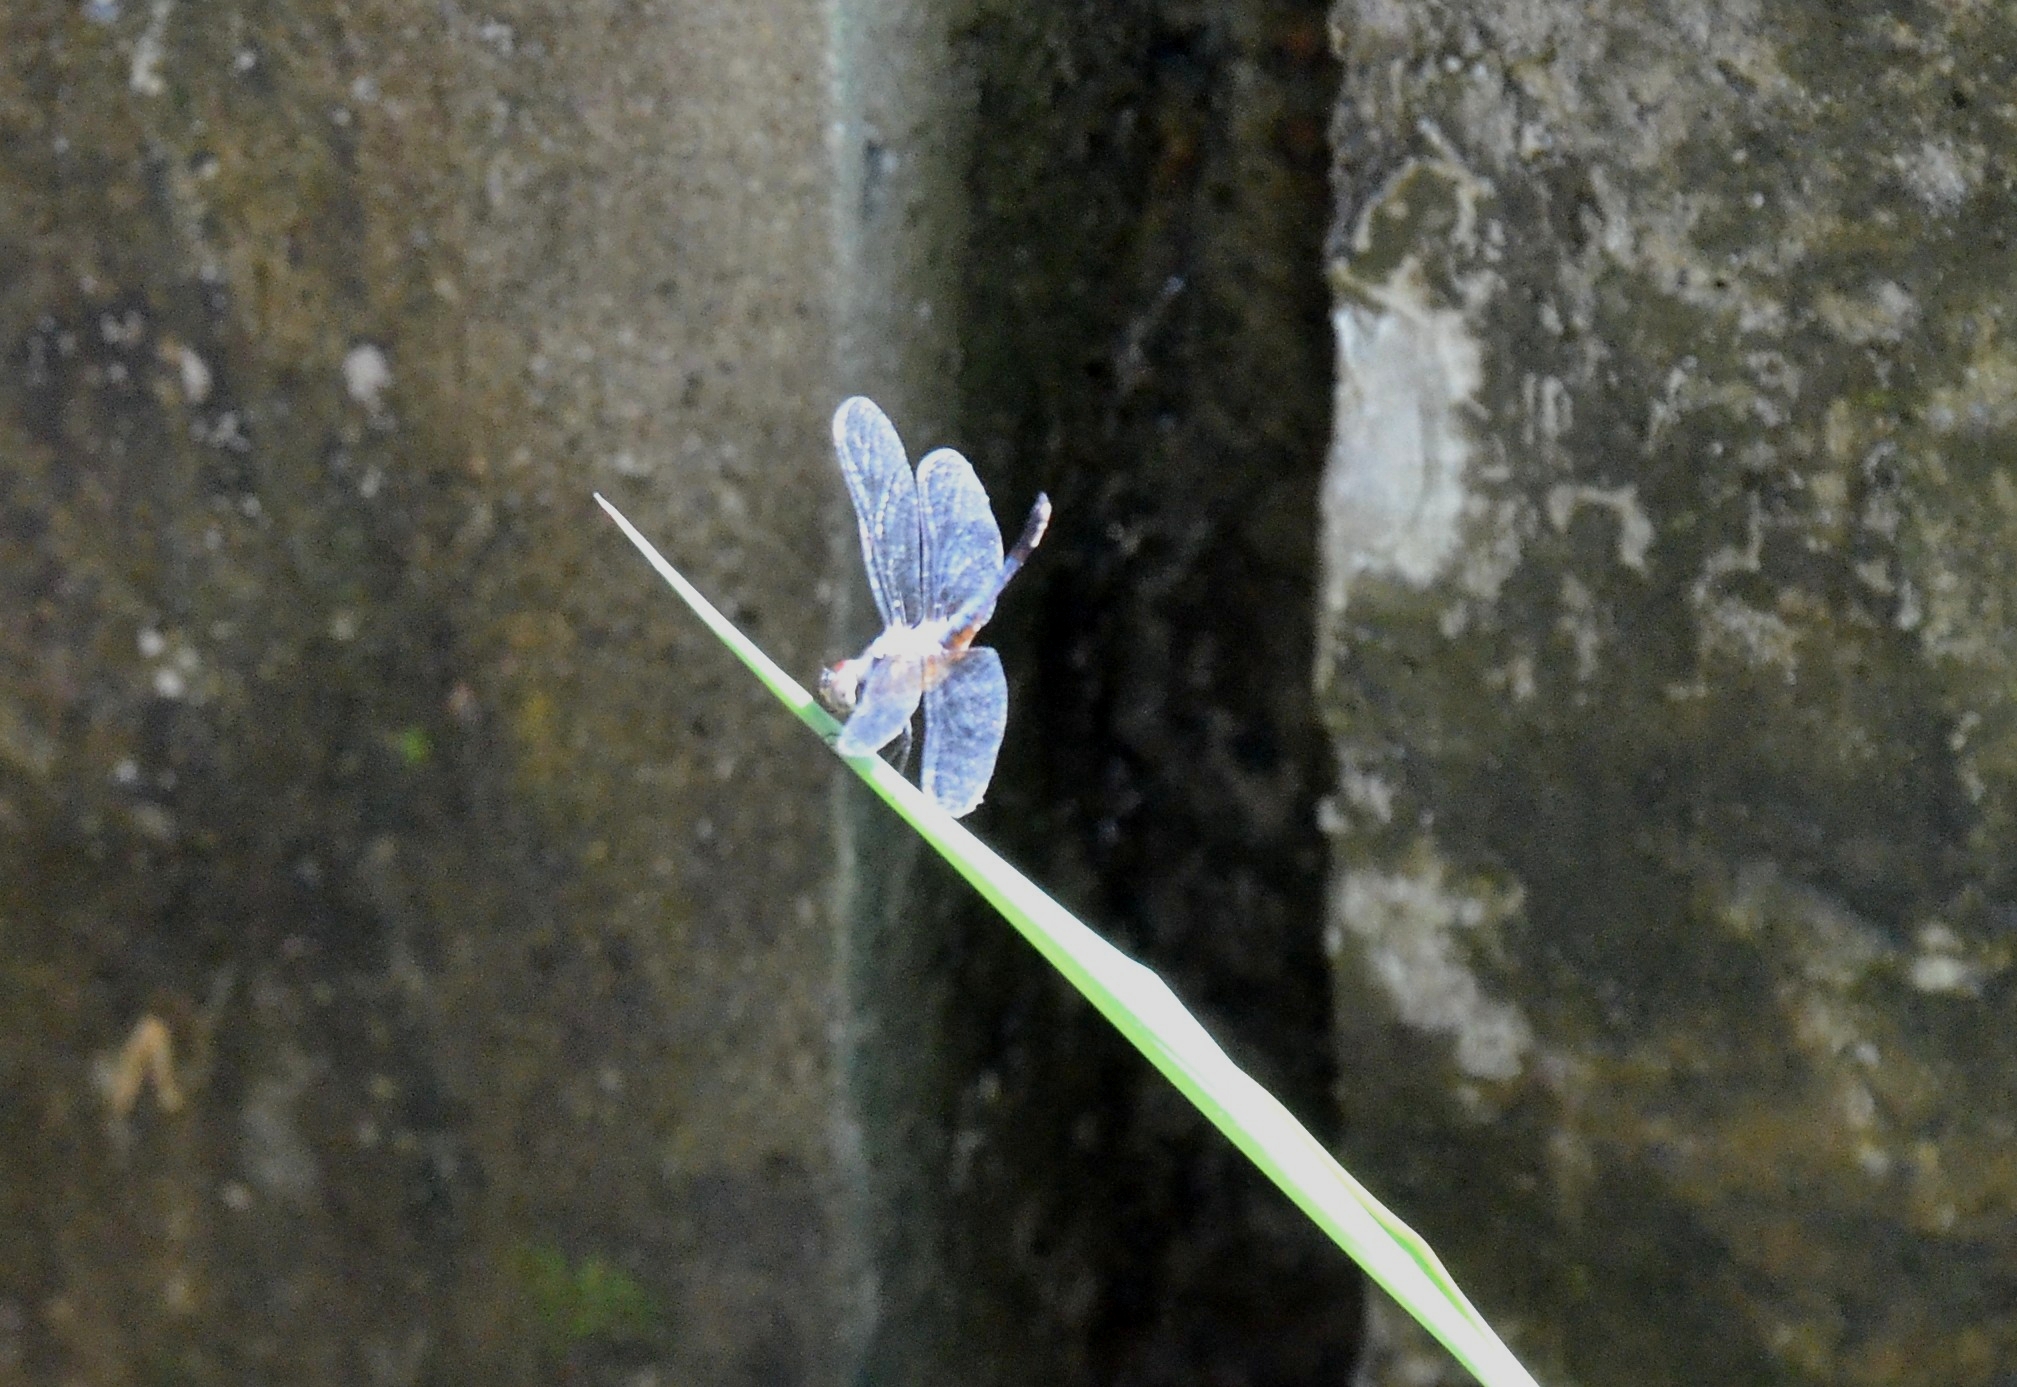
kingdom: Animalia
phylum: Arthropoda
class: Insecta
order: Odonata
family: Libellulidae
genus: Brachydiplax
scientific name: Brachydiplax chalybea
